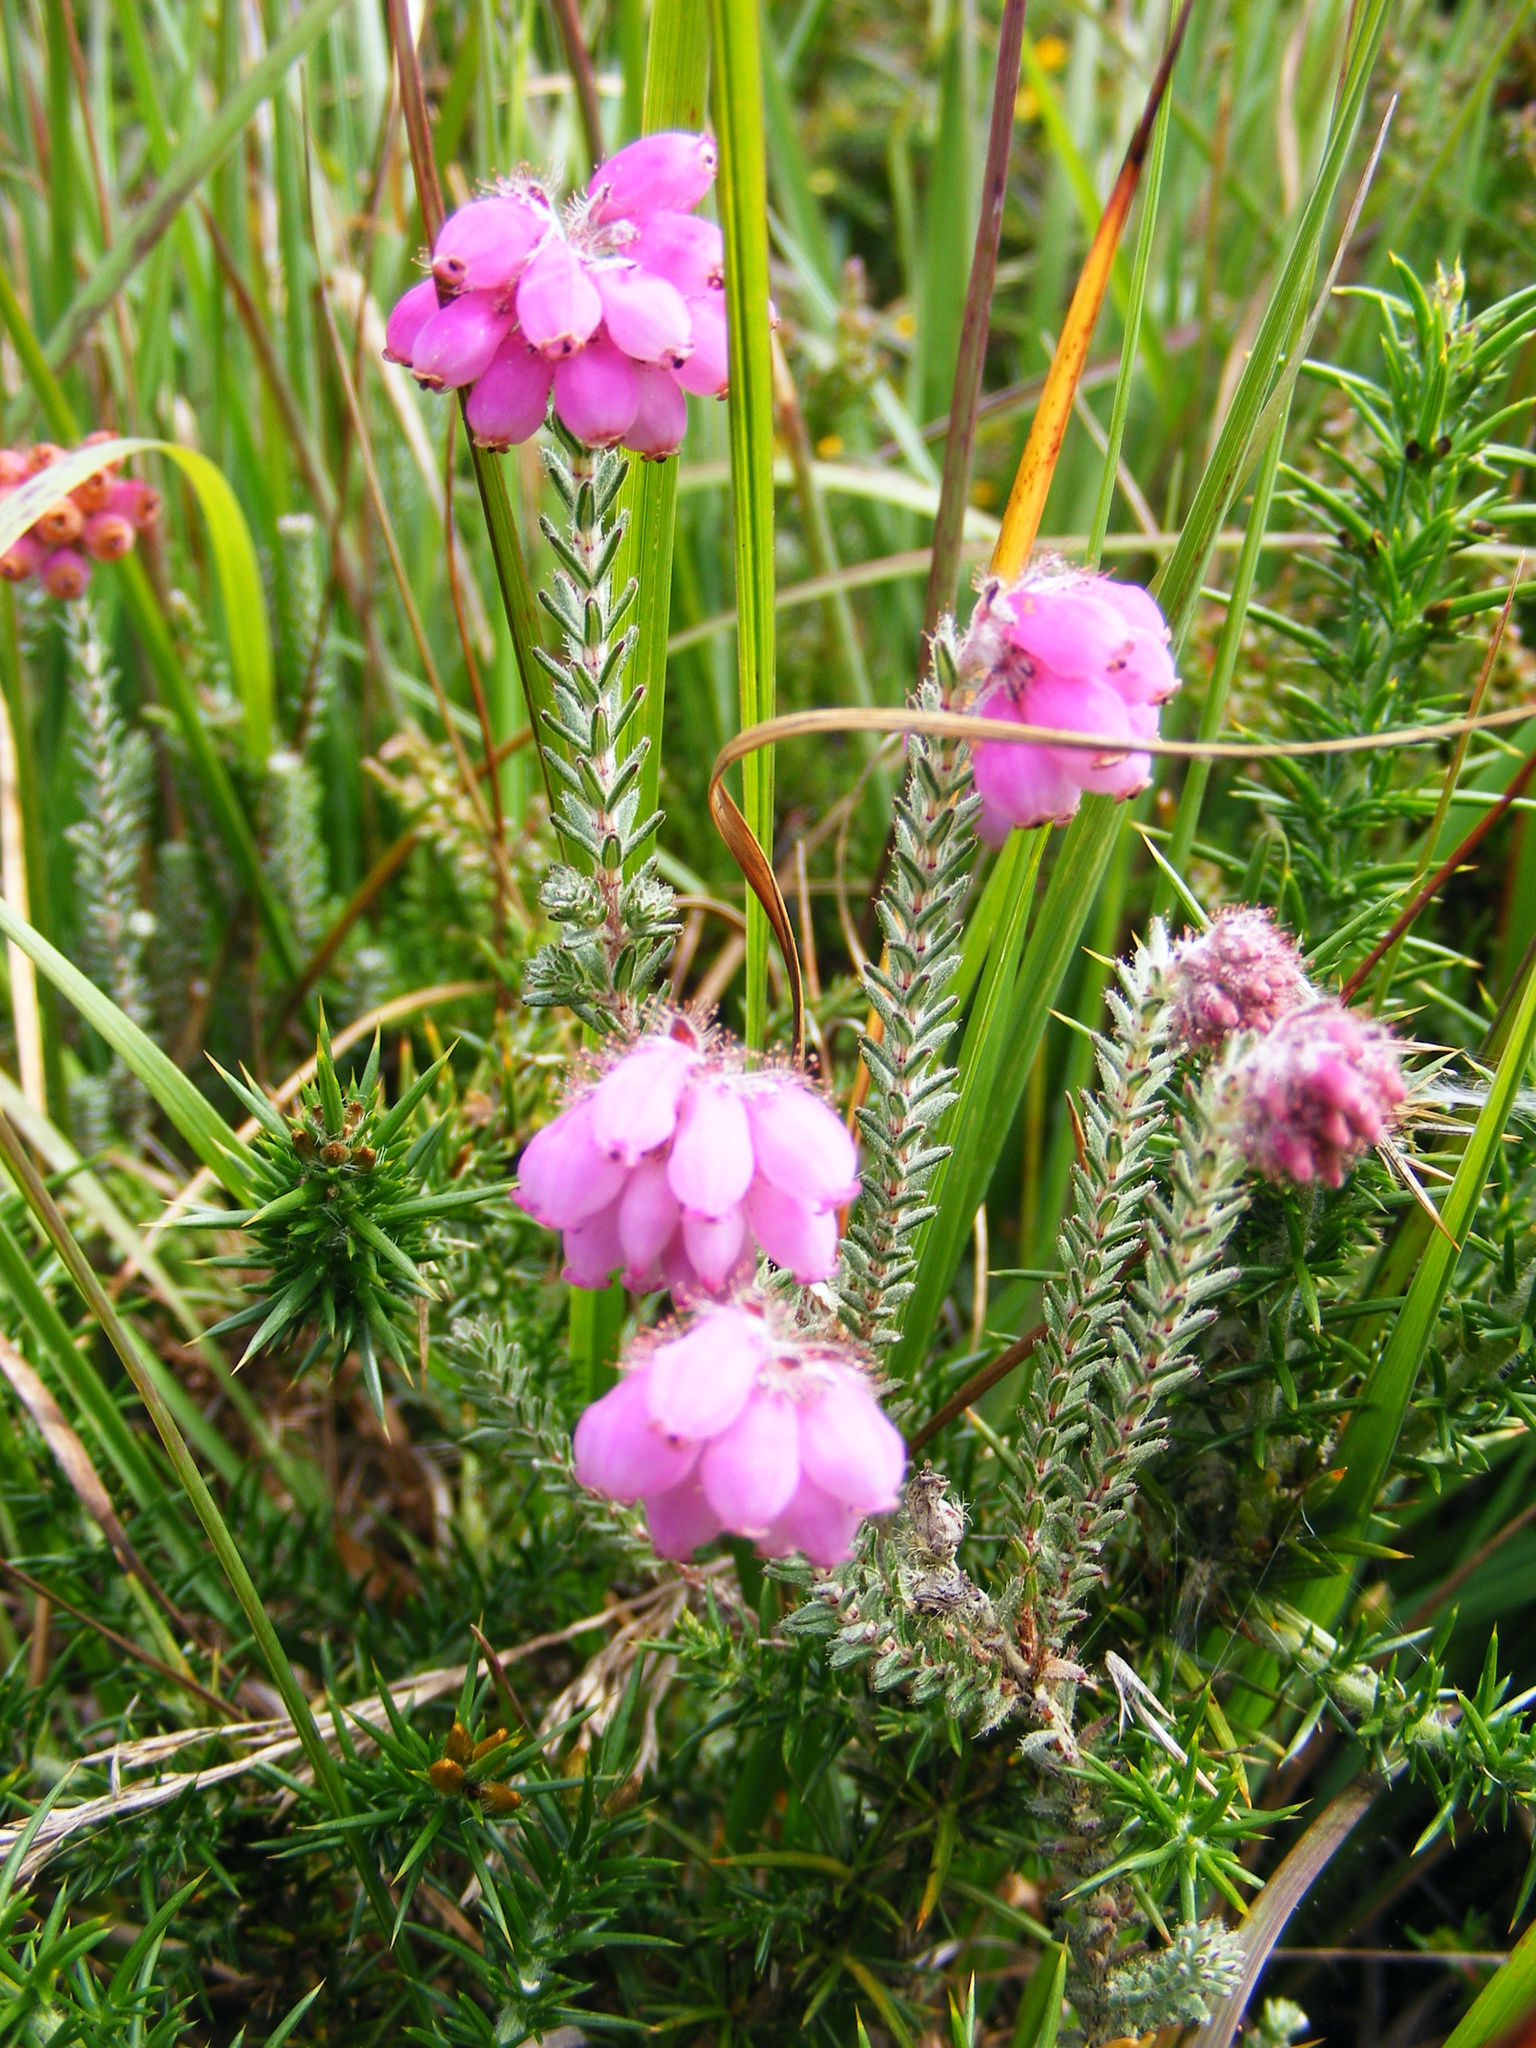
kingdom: Plantae
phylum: Tracheophyta
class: Magnoliopsida
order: Ericales
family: Ericaceae
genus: Erica
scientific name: Erica tetralix
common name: Cross-leaved heath
